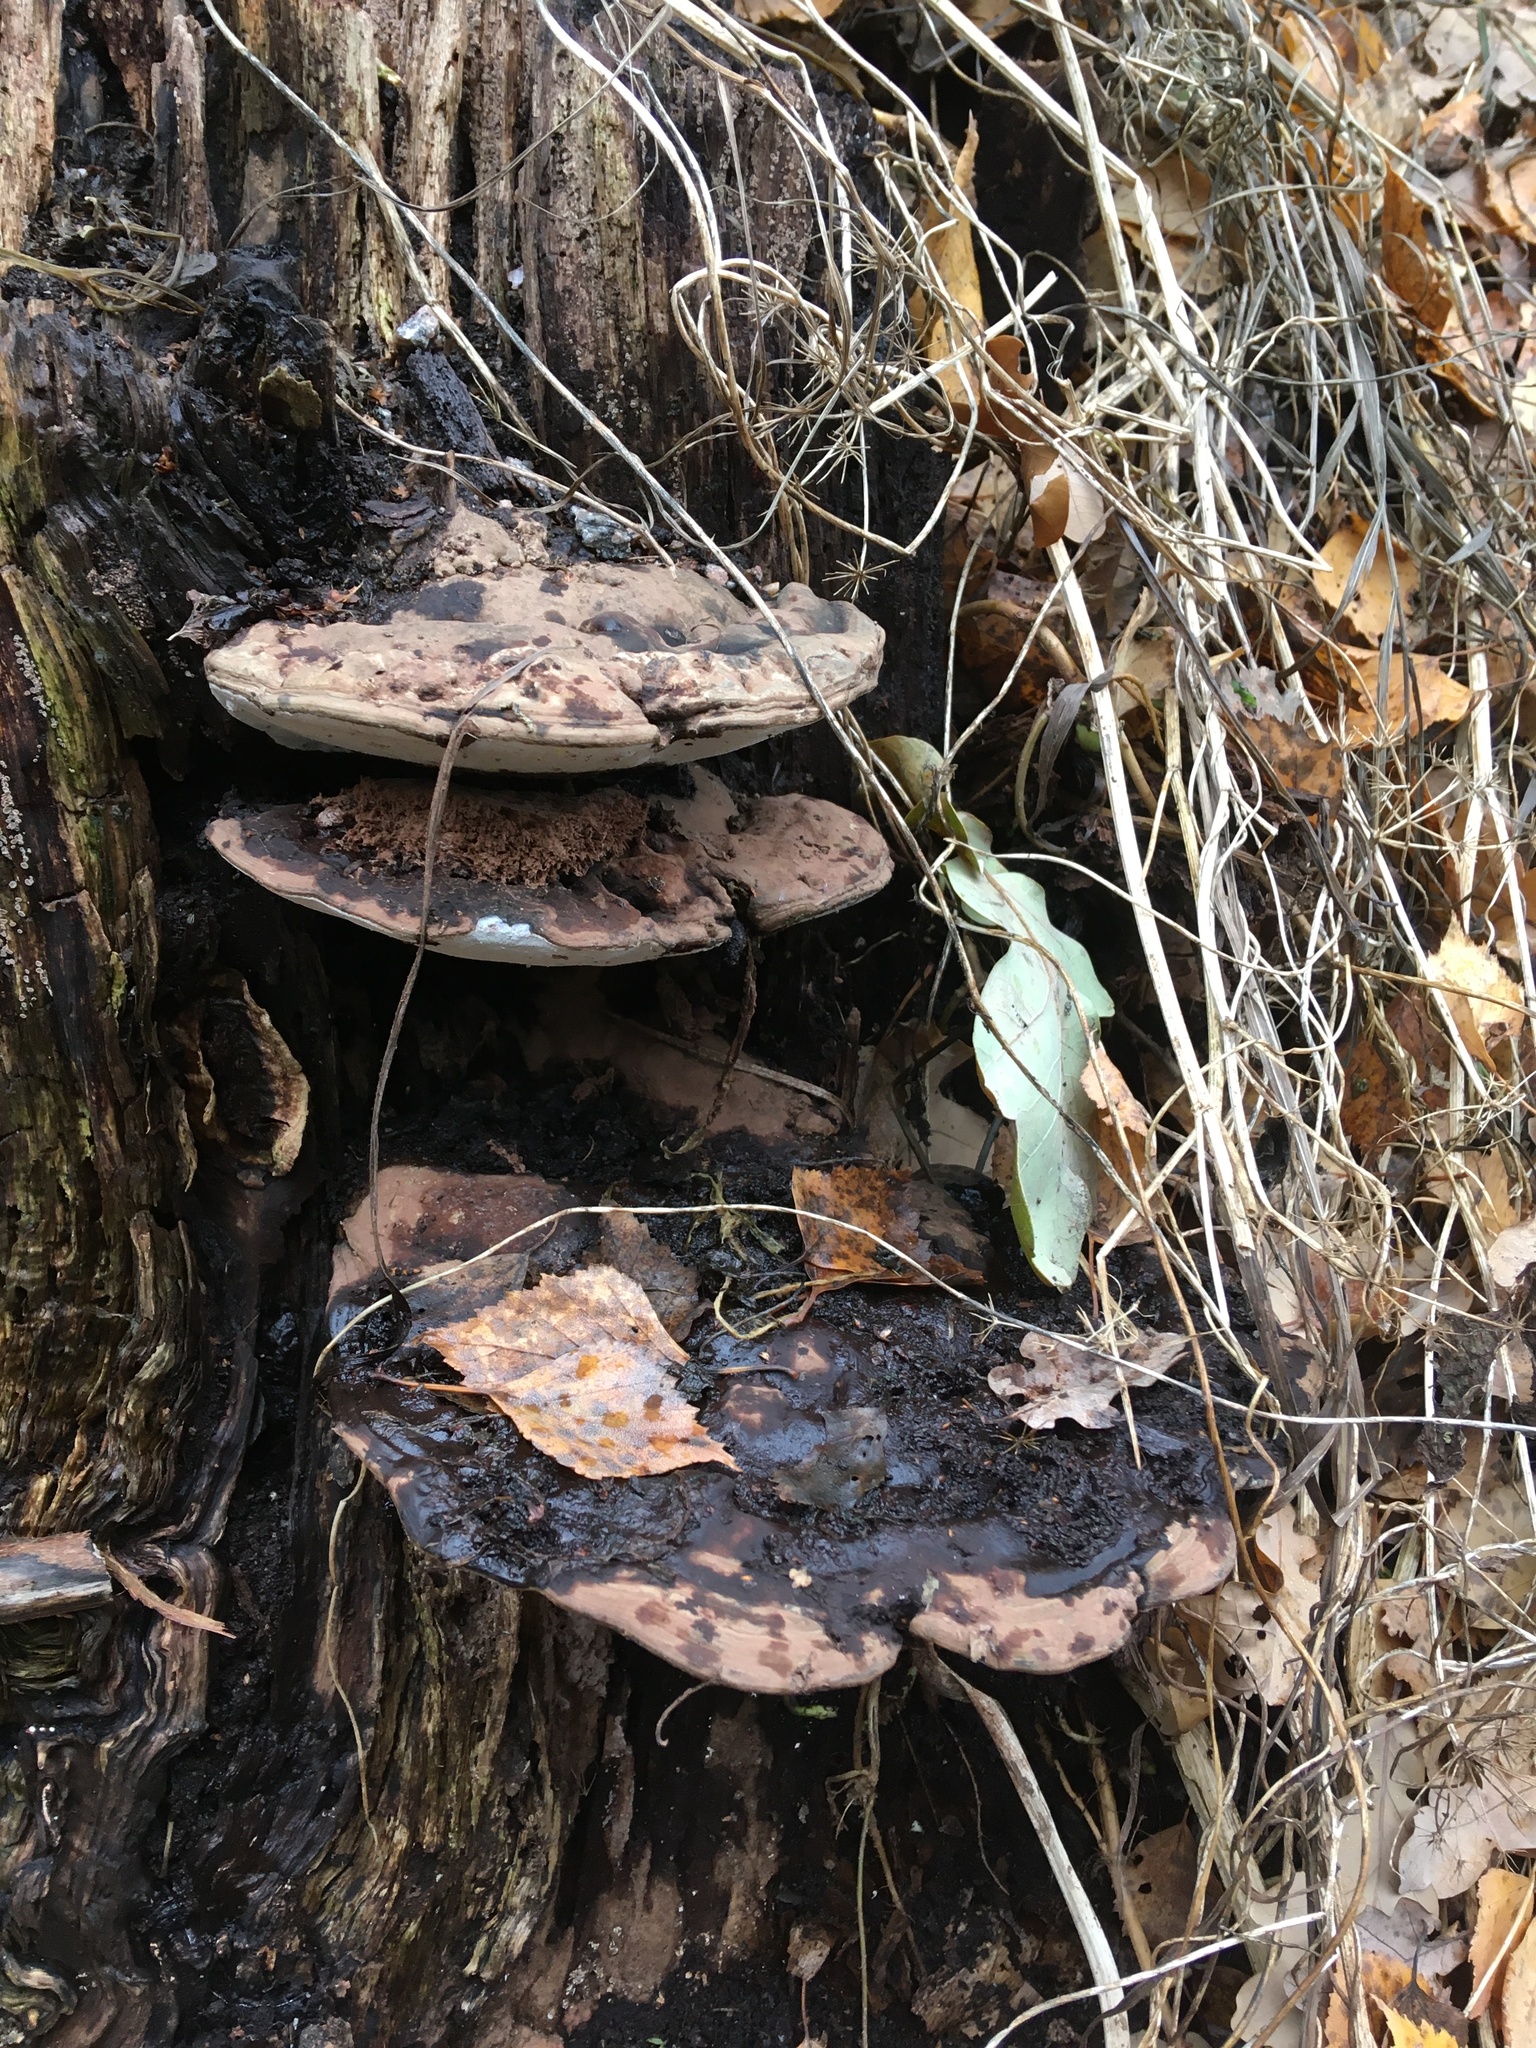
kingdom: Fungi
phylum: Basidiomycota
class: Agaricomycetes
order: Polyporales
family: Polyporaceae
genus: Ganoderma
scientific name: Ganoderma applanatum
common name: Artist's bracket
